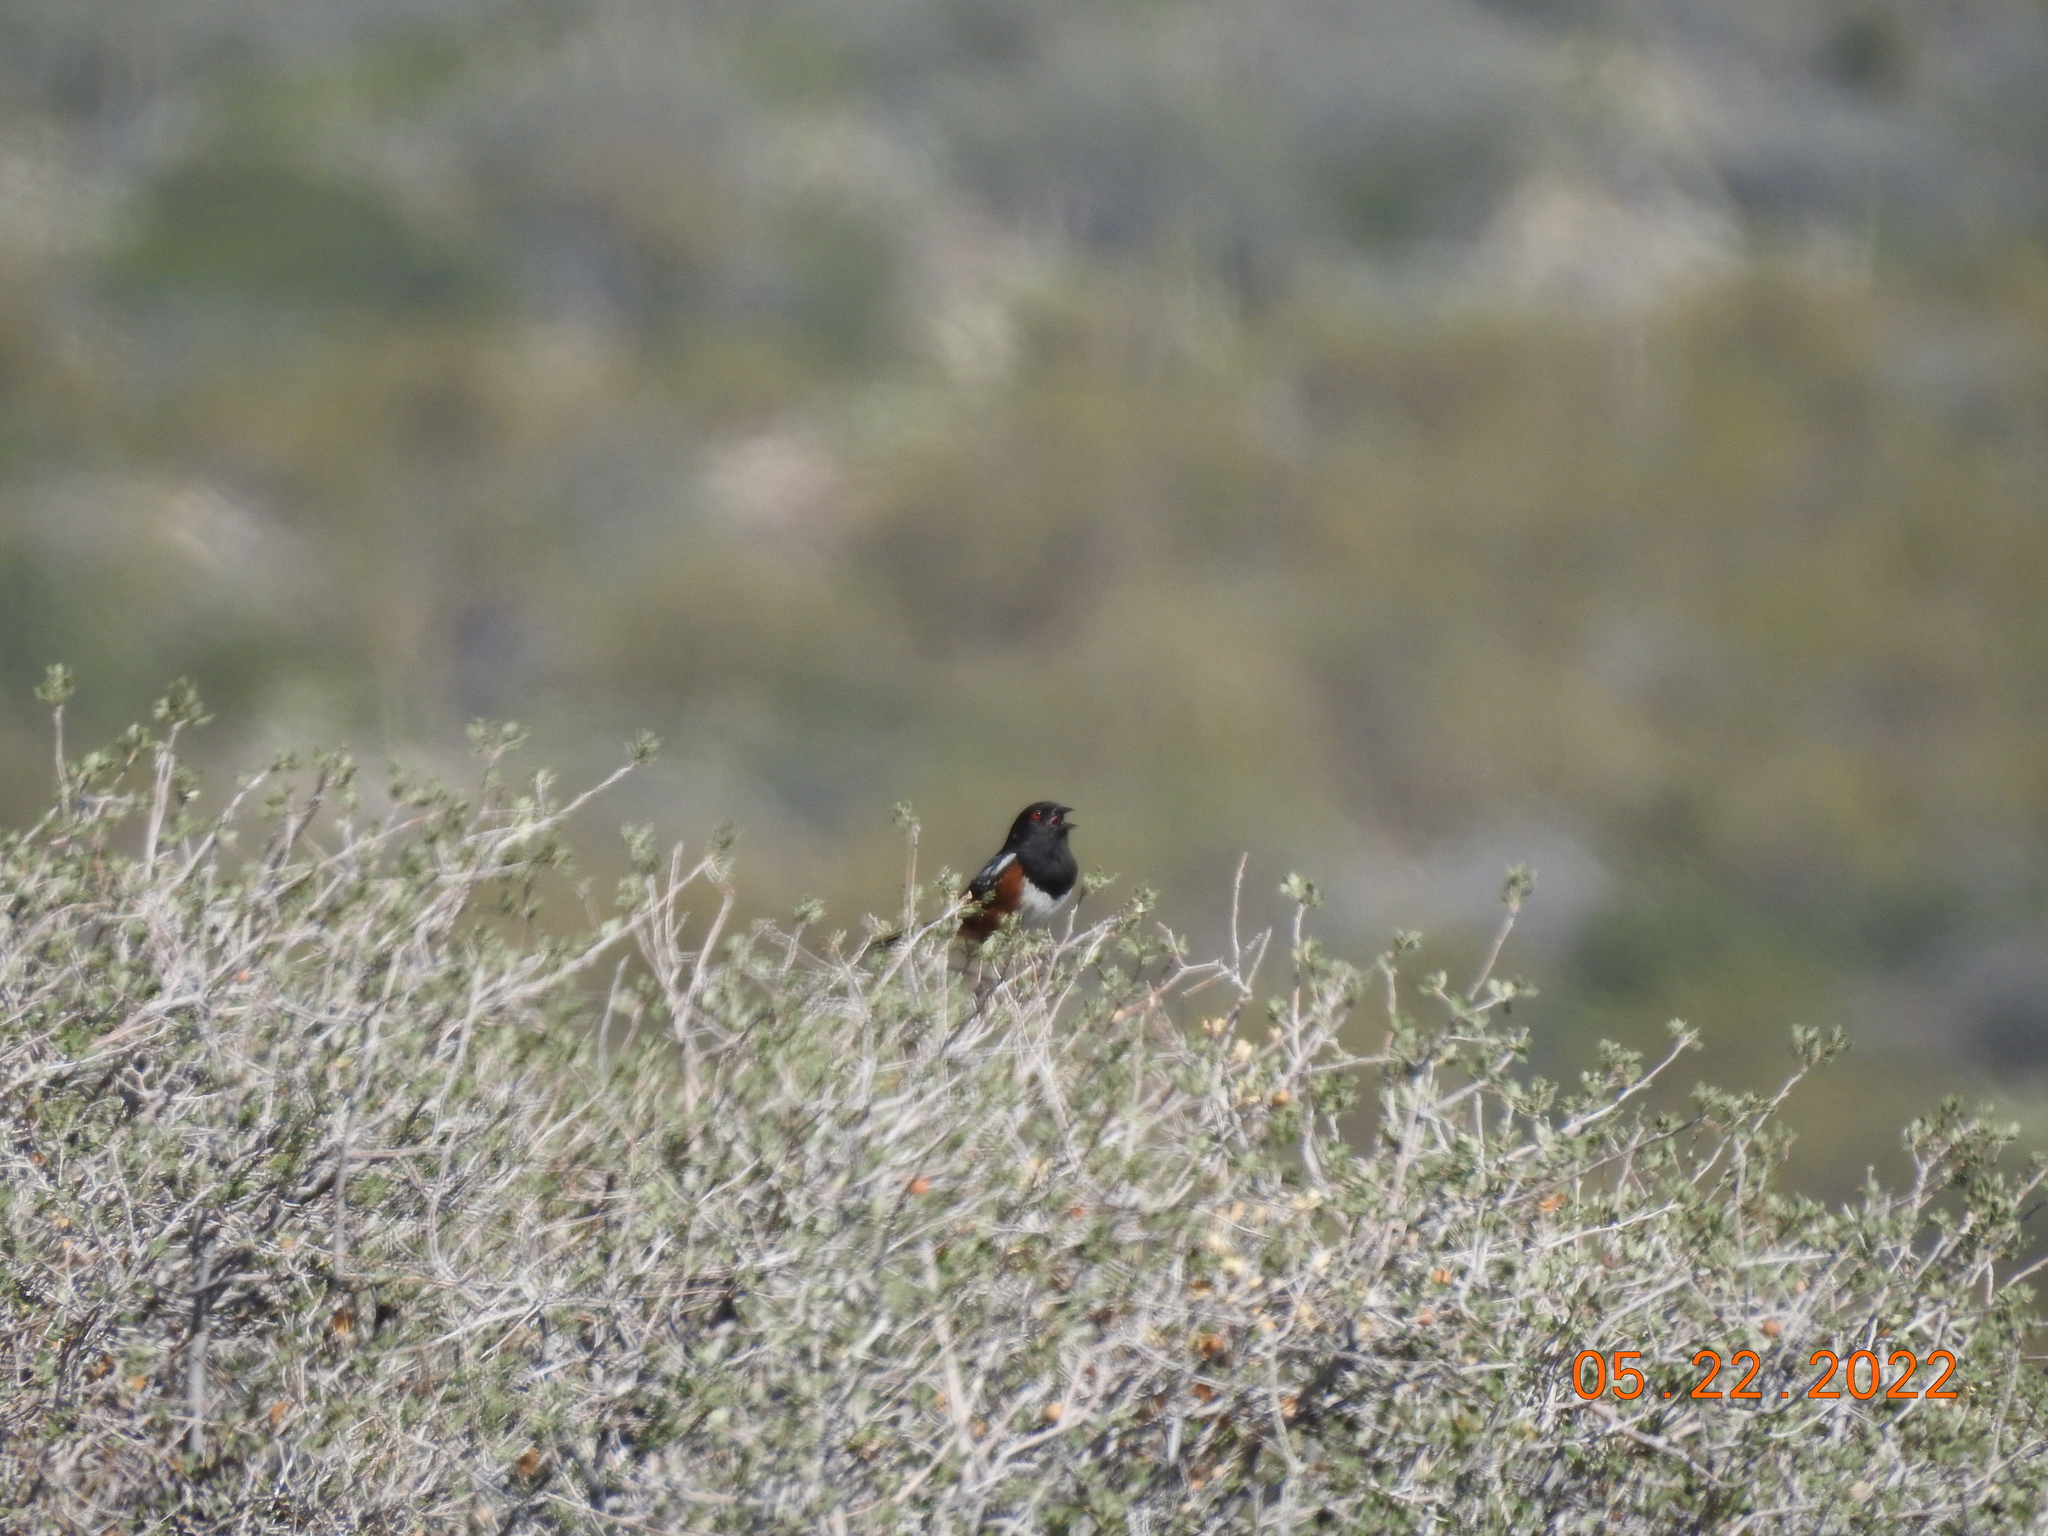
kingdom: Animalia
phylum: Chordata
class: Aves
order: Passeriformes
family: Passerellidae
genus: Pipilo
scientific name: Pipilo maculatus
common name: Spotted towhee
